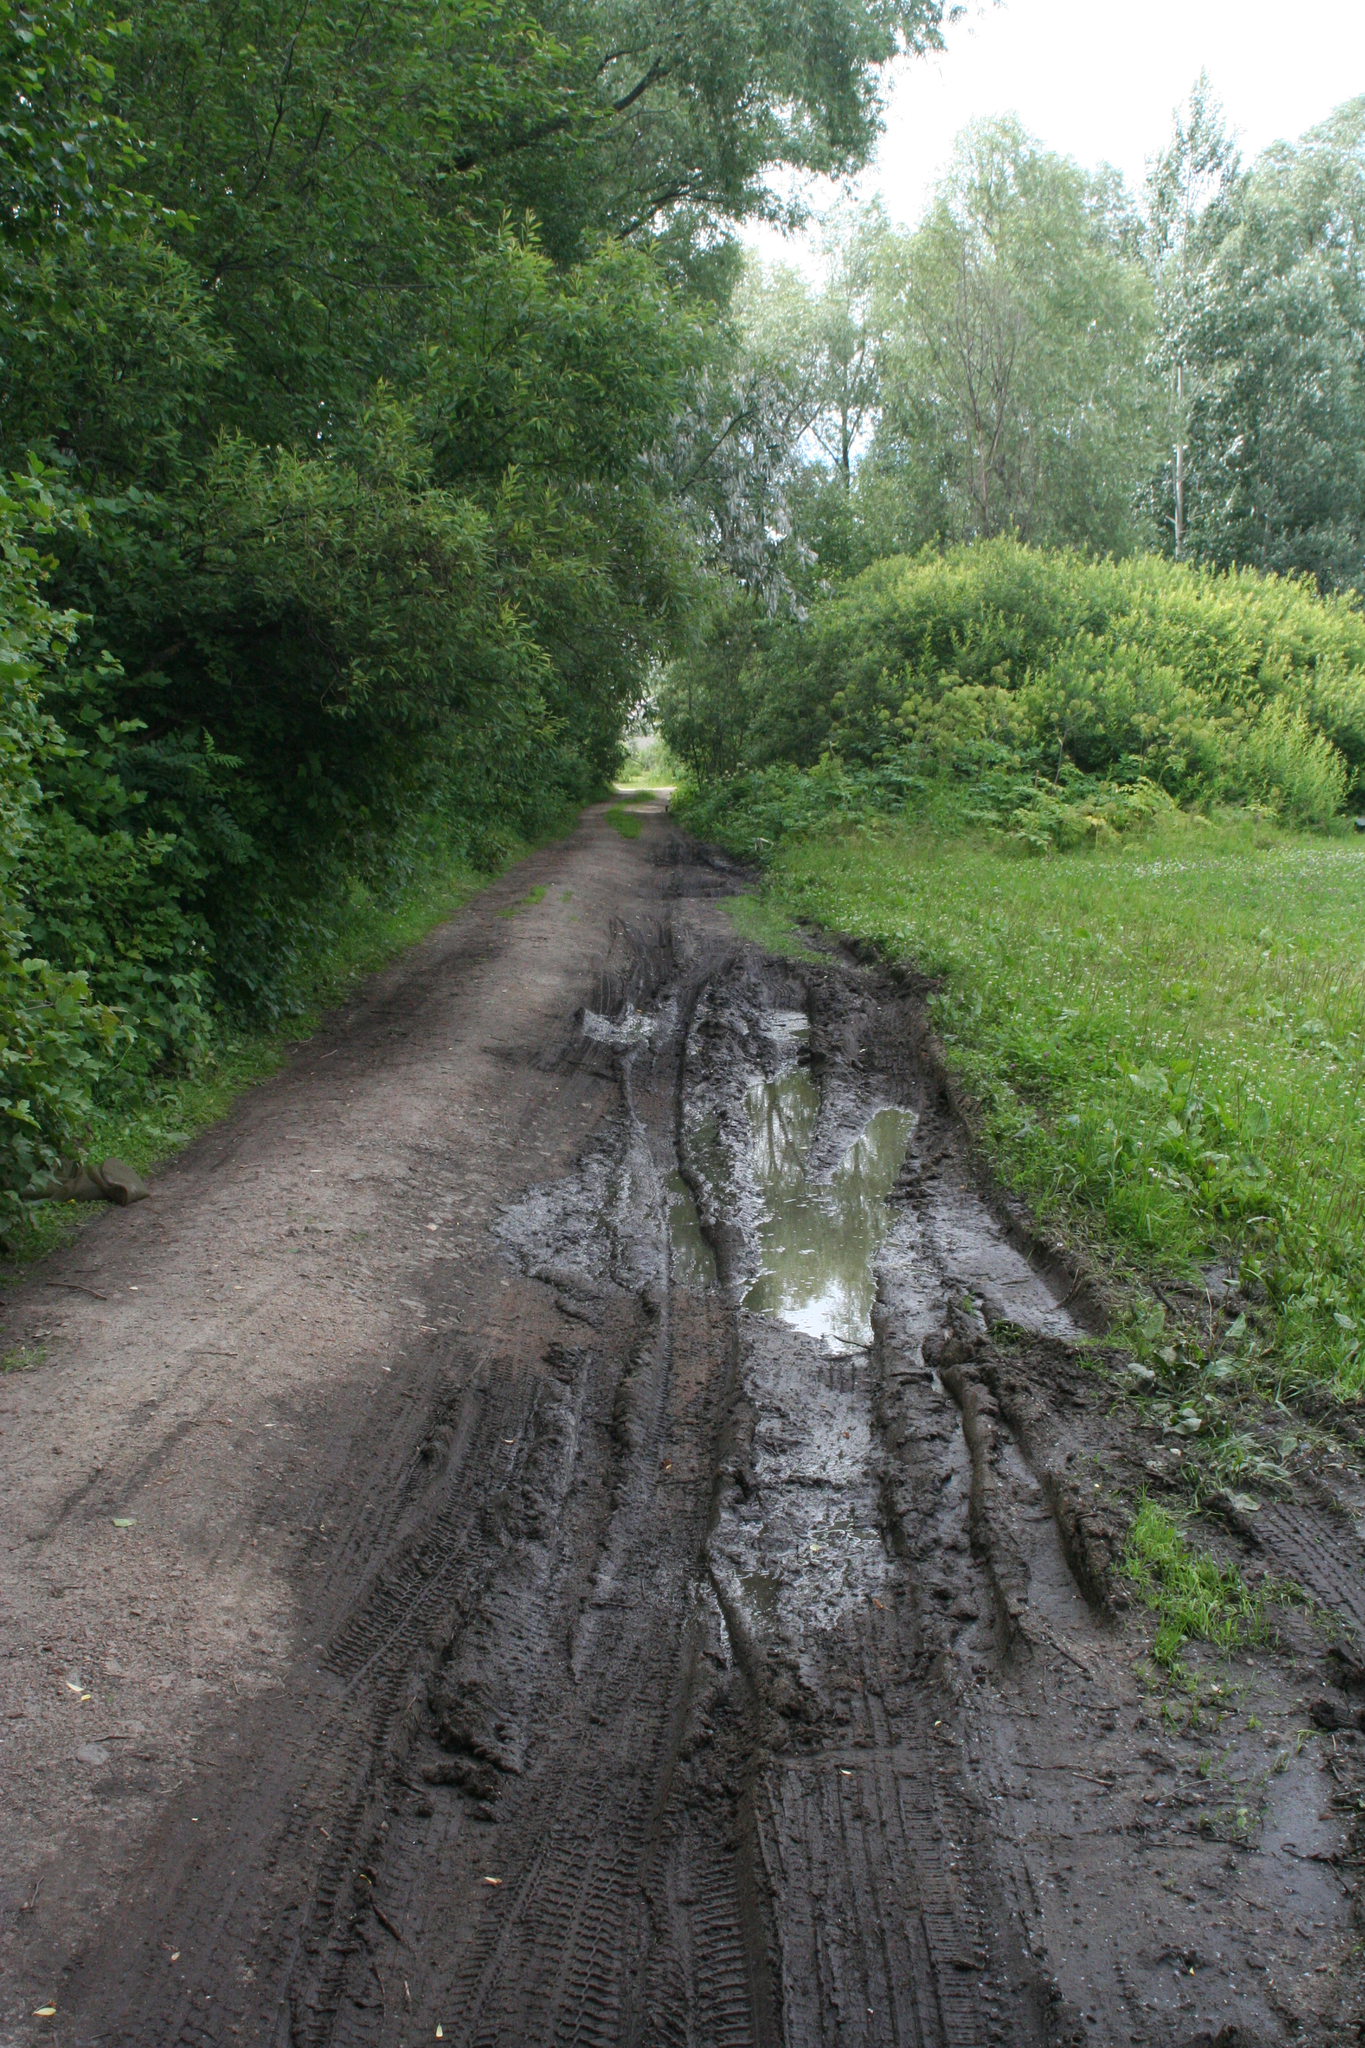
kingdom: Animalia
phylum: Arthropoda
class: Insecta
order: Odonata
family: Corduliidae
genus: Somatochlora
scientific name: Somatochlora exuberata
